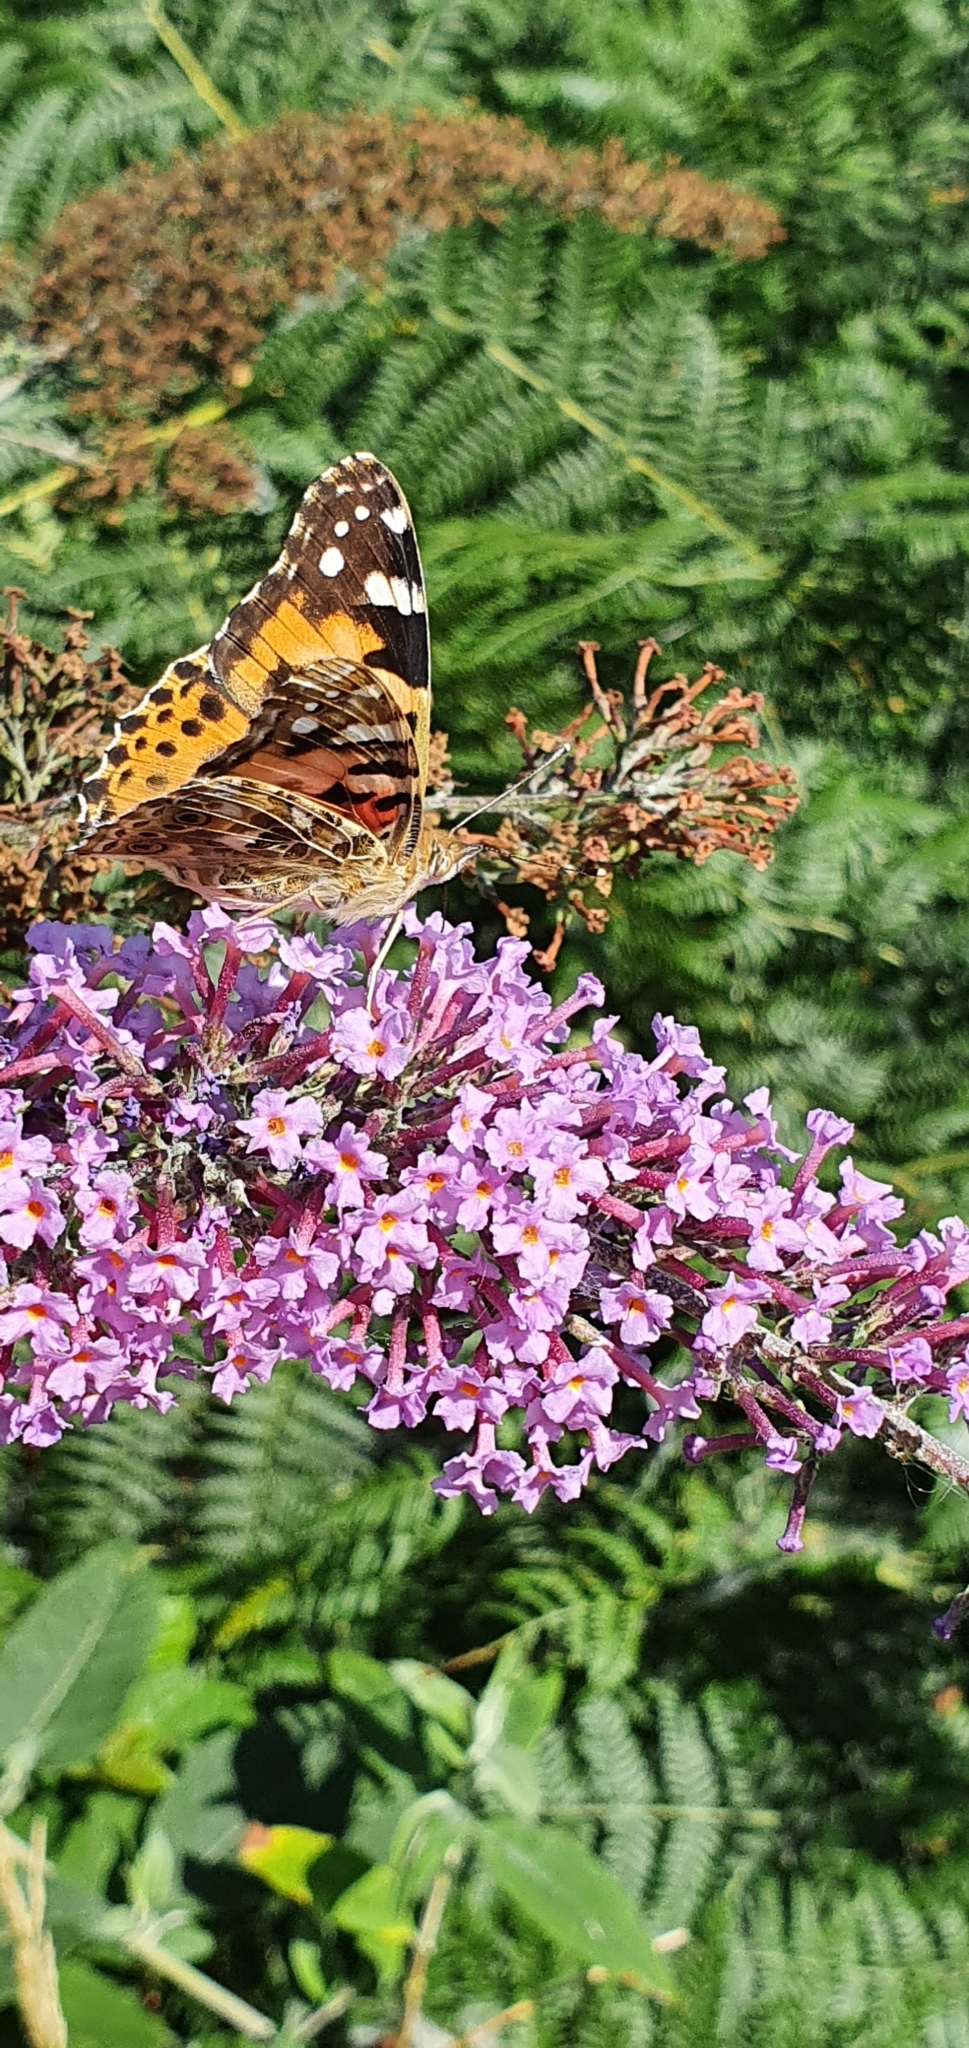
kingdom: Animalia
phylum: Arthropoda
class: Insecta
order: Lepidoptera
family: Nymphalidae
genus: Vanessa
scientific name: Vanessa cardui
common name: Painted lady
